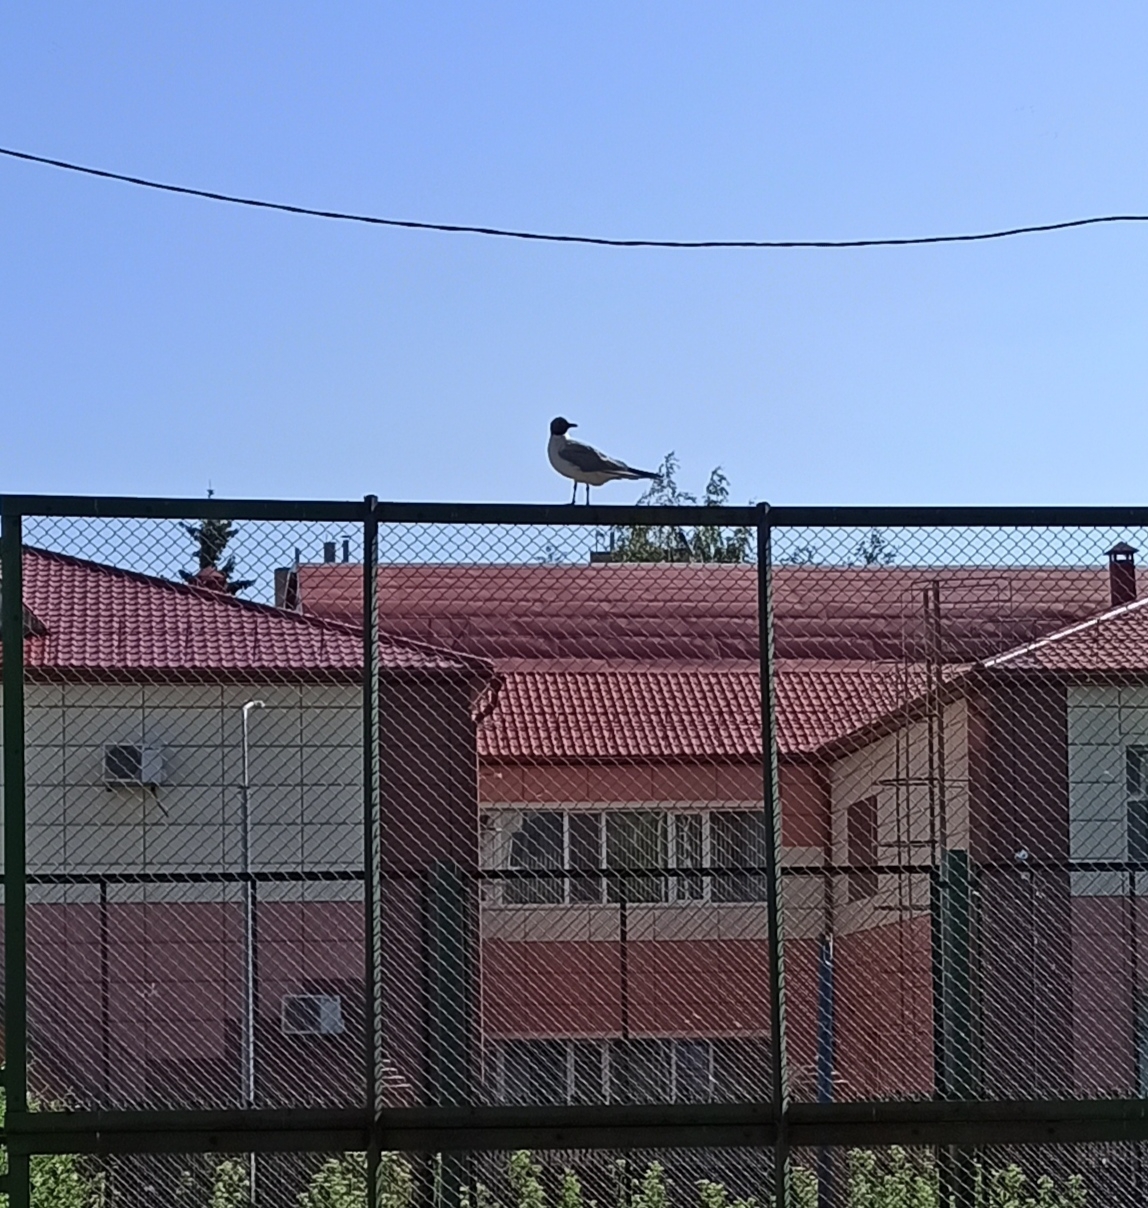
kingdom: Animalia
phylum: Chordata
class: Aves
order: Charadriiformes
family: Laridae
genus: Chroicocephalus
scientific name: Chroicocephalus ridibundus
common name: Black-headed gull
